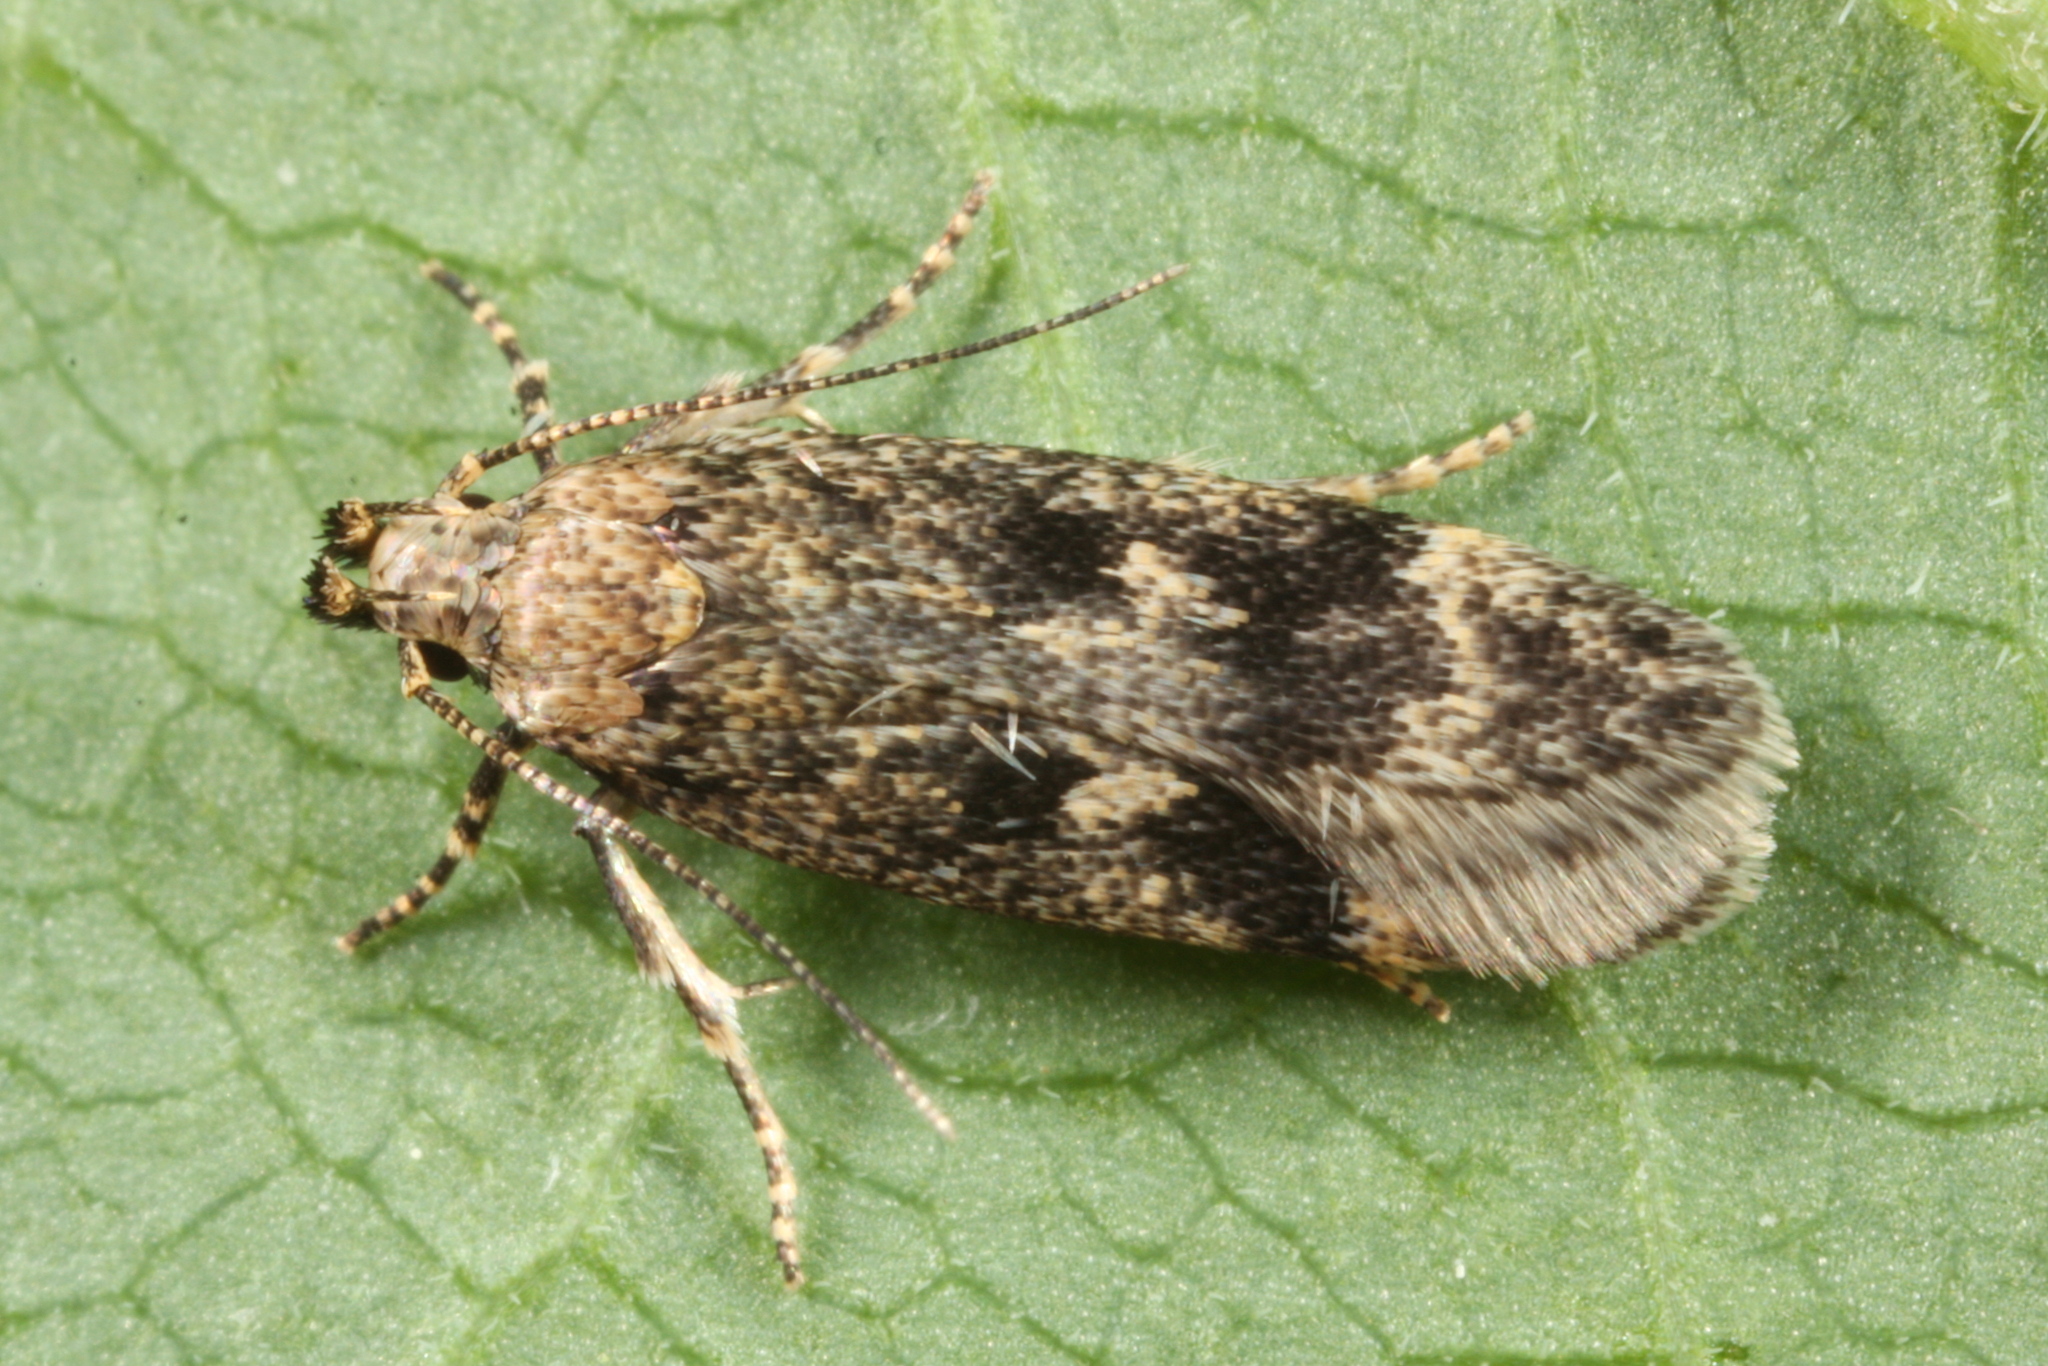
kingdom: Animalia
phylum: Arthropoda
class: Insecta
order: Lepidoptera
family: Gelechiidae
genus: Gelechia
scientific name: Gelechia scotinella
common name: Thicket groundling
